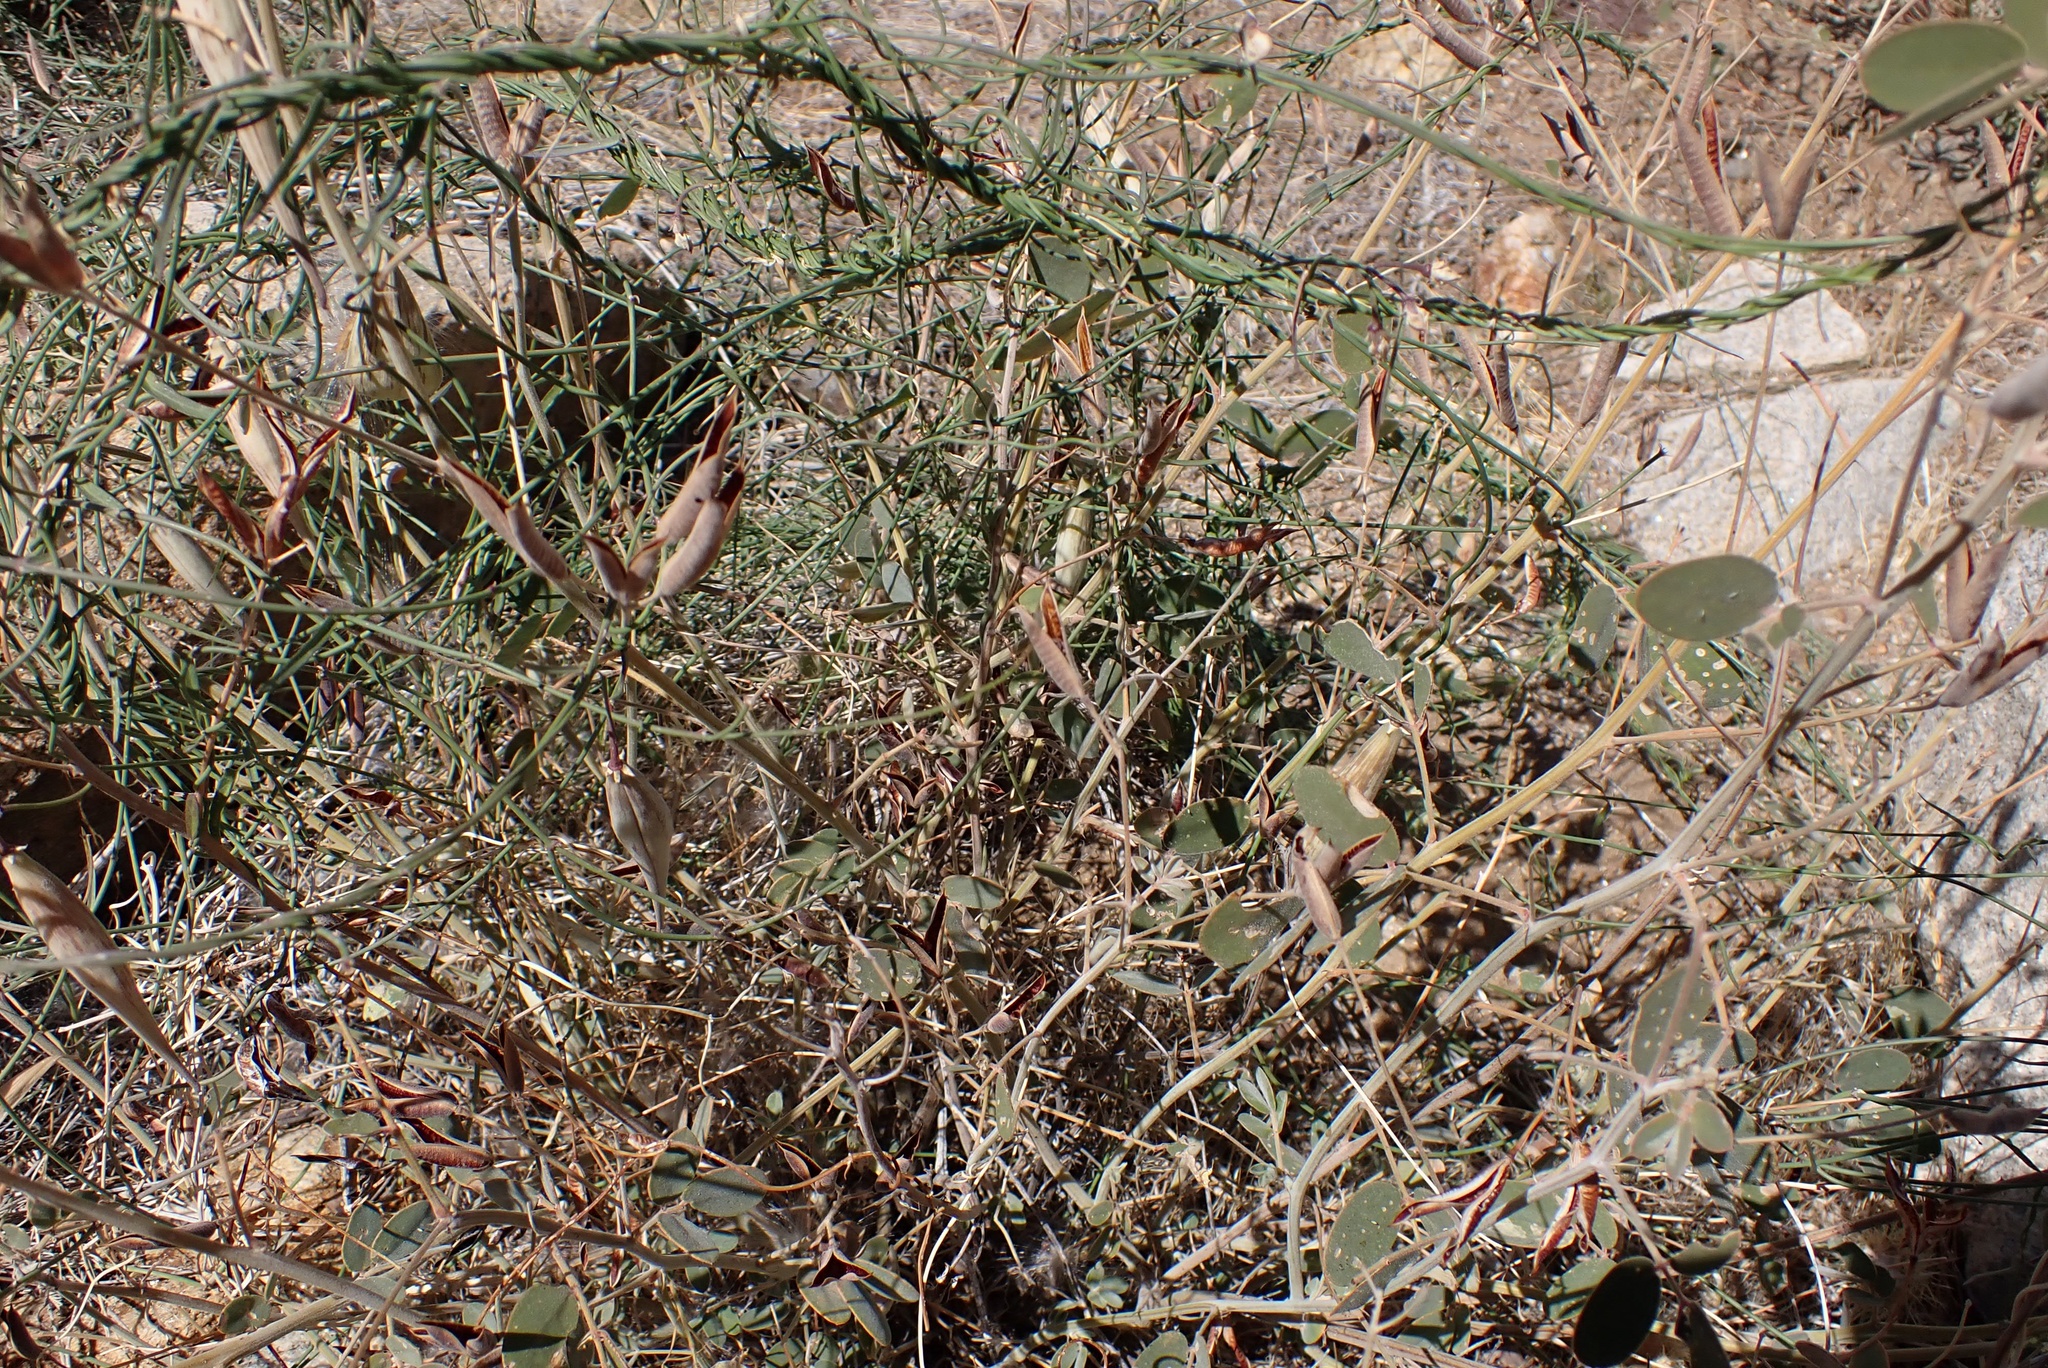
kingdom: Plantae
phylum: Tracheophyta
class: Magnoliopsida
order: Fabales
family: Fabaceae
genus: Senna
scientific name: Senna covesii
